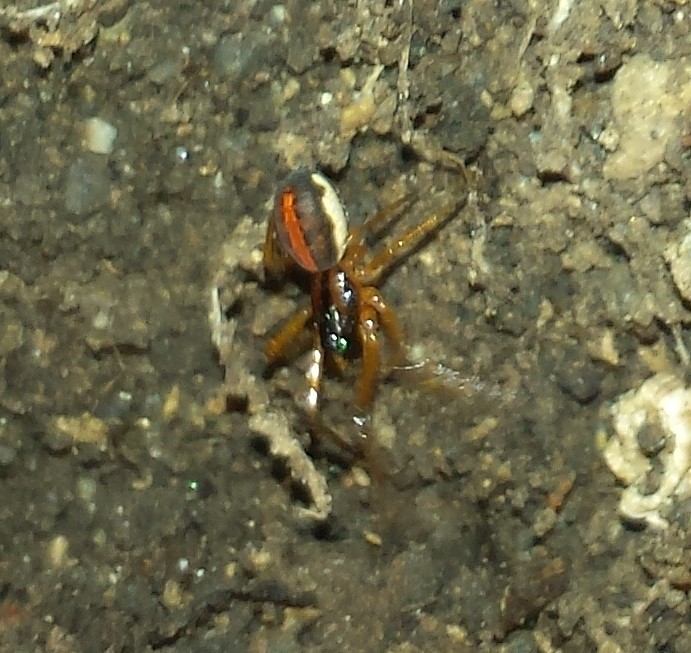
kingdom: Animalia
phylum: Arthropoda
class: Arachnida
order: Araneae
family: Tetragnathidae
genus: Pachygnatha
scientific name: Pachygnatha autumnalis
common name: Big-eyed thick-jawed spider
